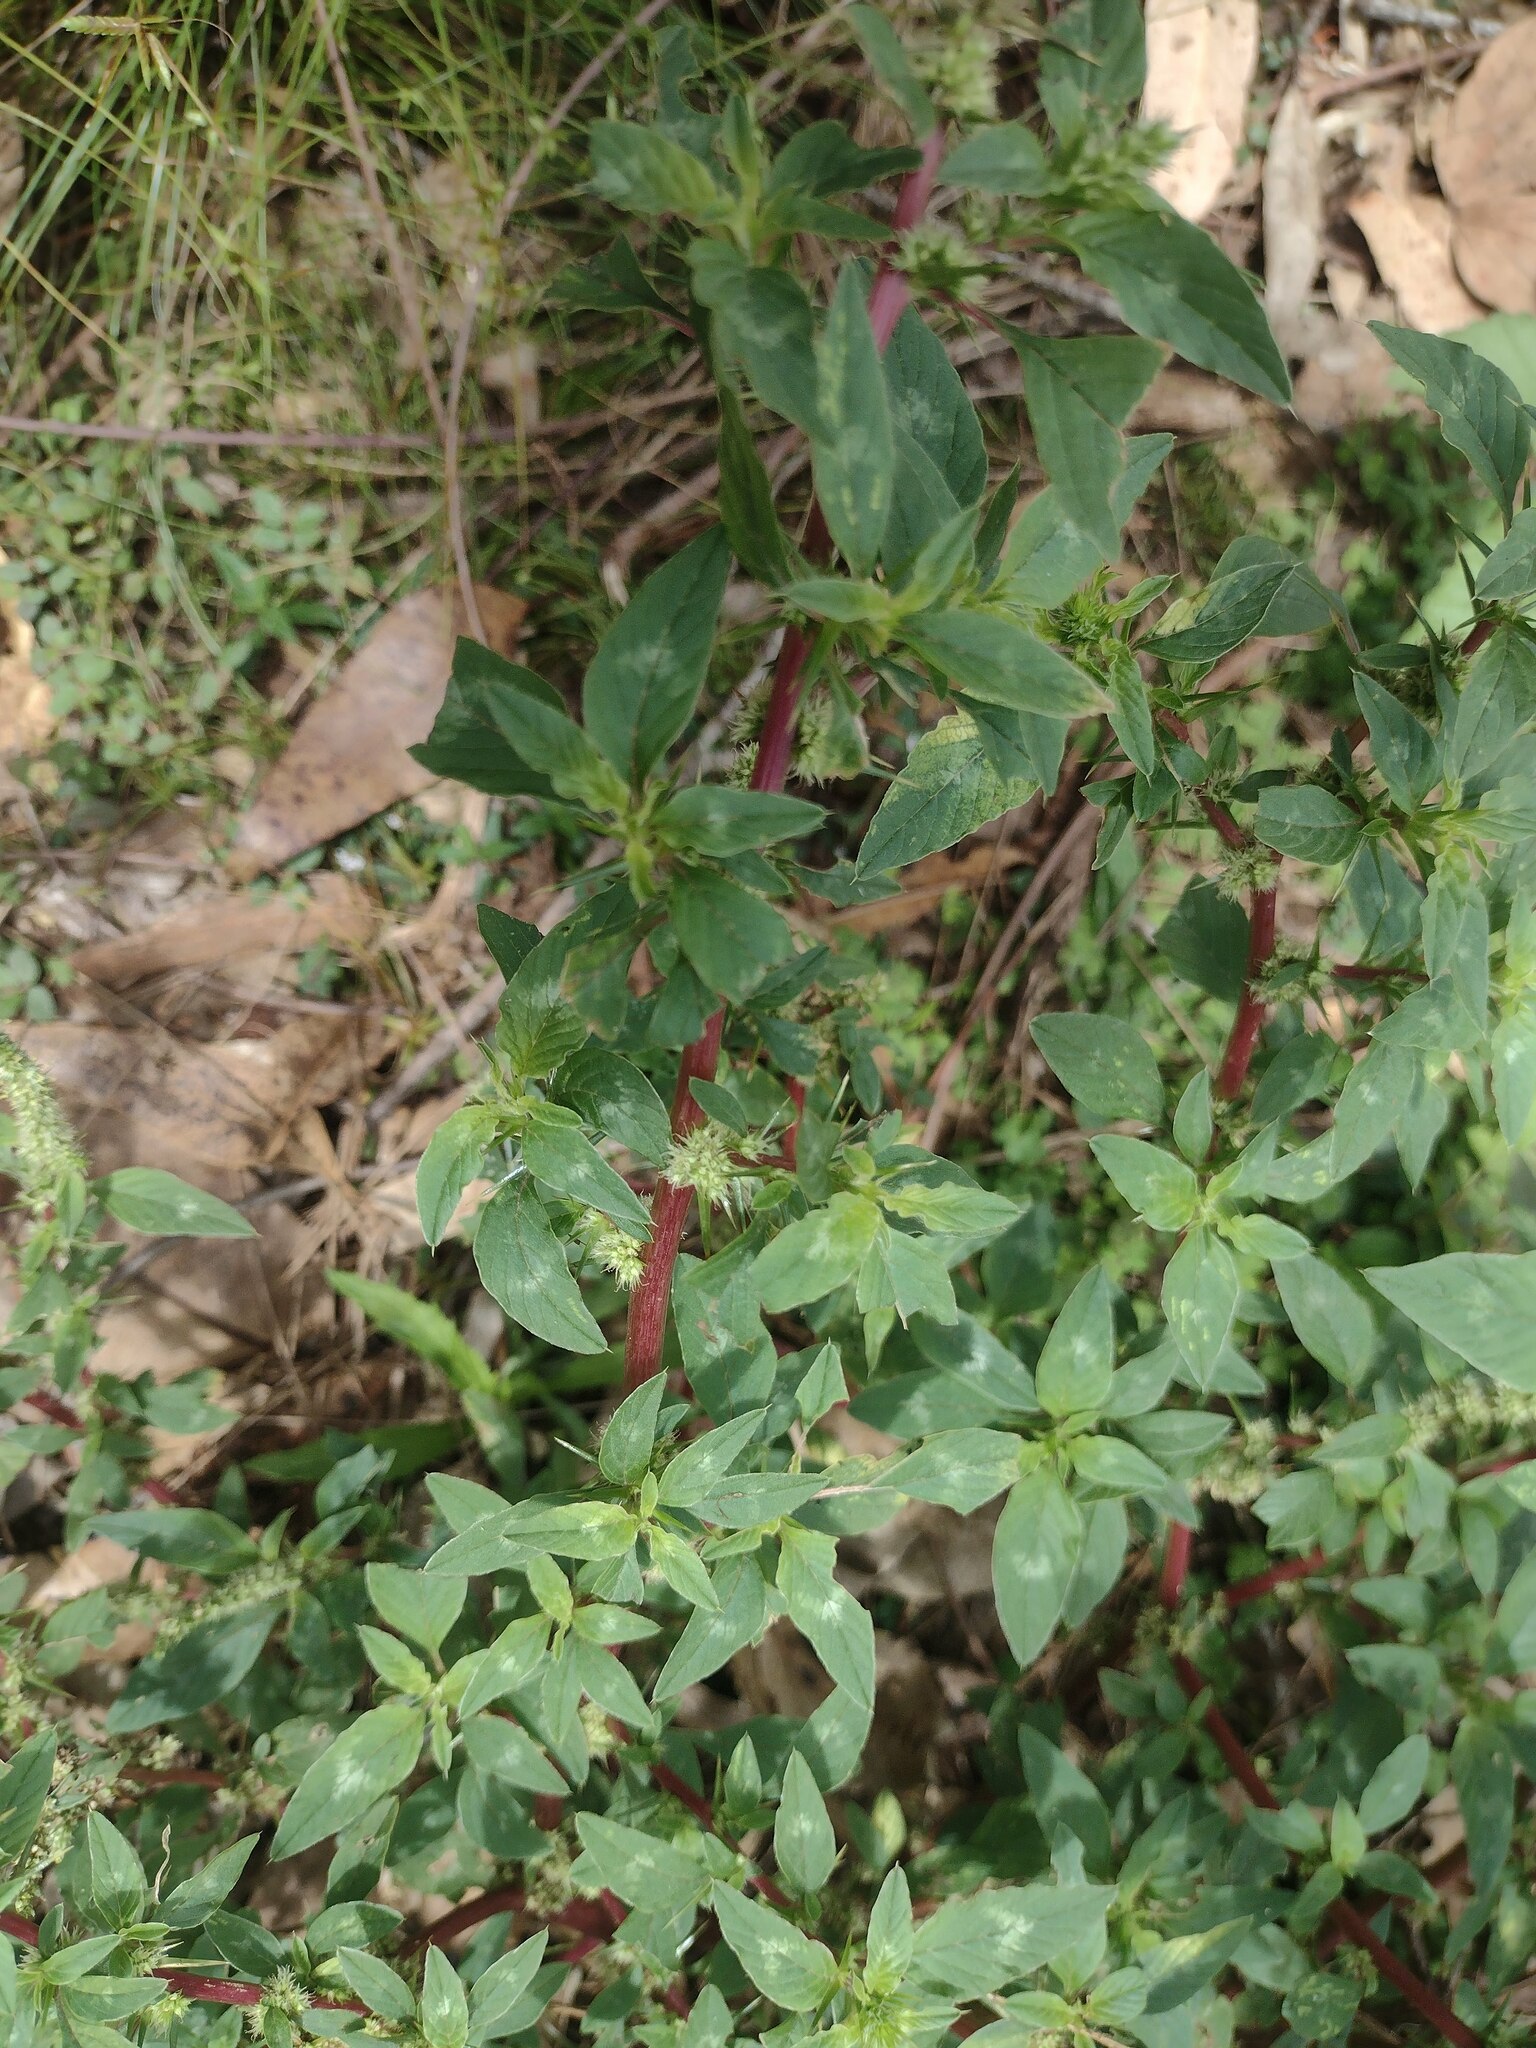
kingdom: Plantae
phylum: Tracheophyta
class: Magnoliopsida
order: Caryophyllales
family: Amaranthaceae
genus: Amaranthus
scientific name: Amaranthus spinosus
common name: Spiny amaranth
